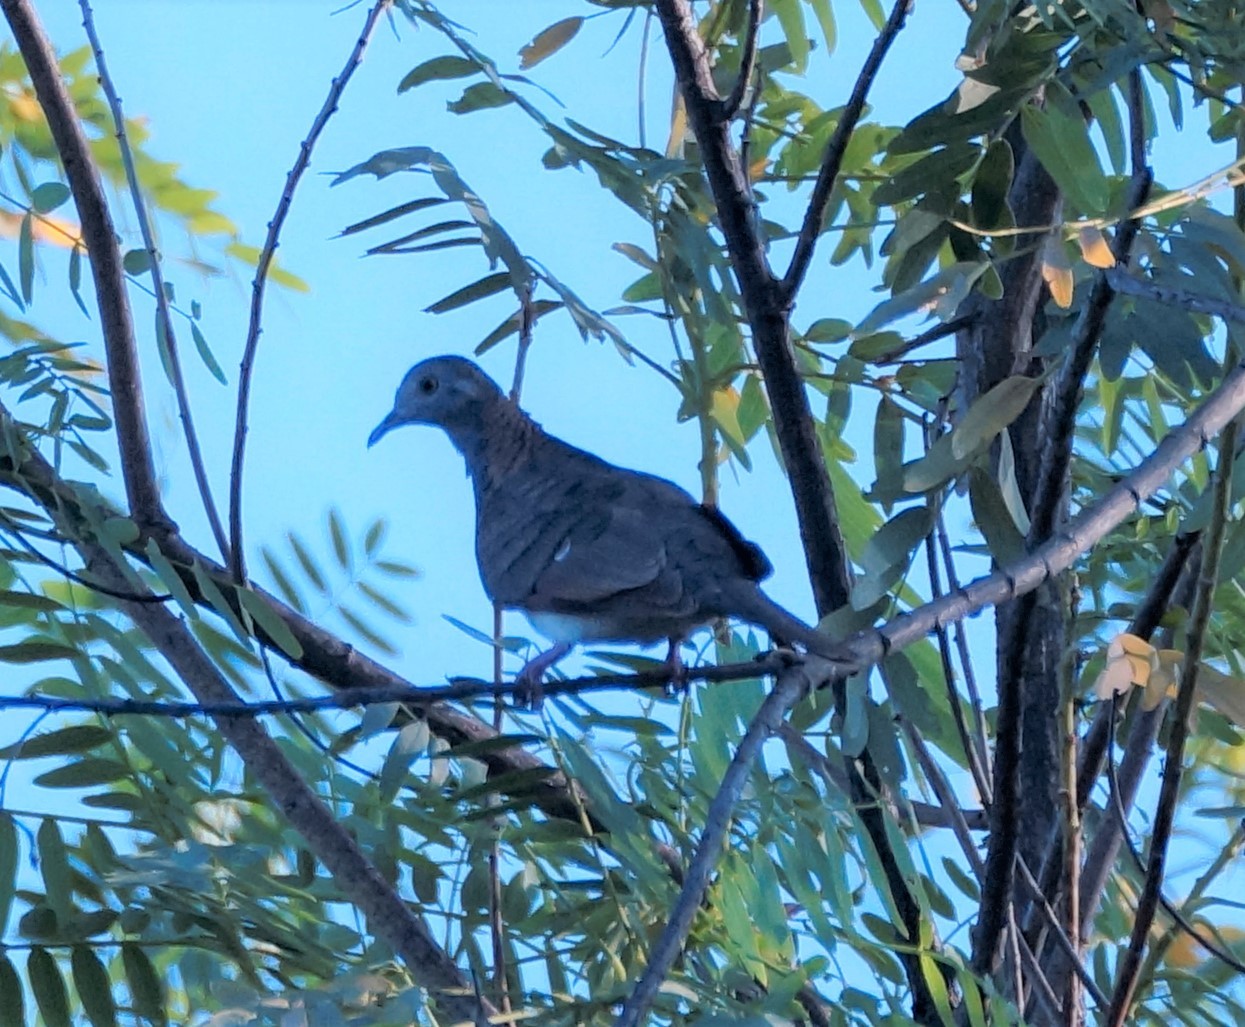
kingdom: Animalia
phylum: Chordata
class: Aves
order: Columbiformes
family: Columbidae
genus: Geopelia
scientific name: Geopelia humeralis
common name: Bar-shouldered dove
